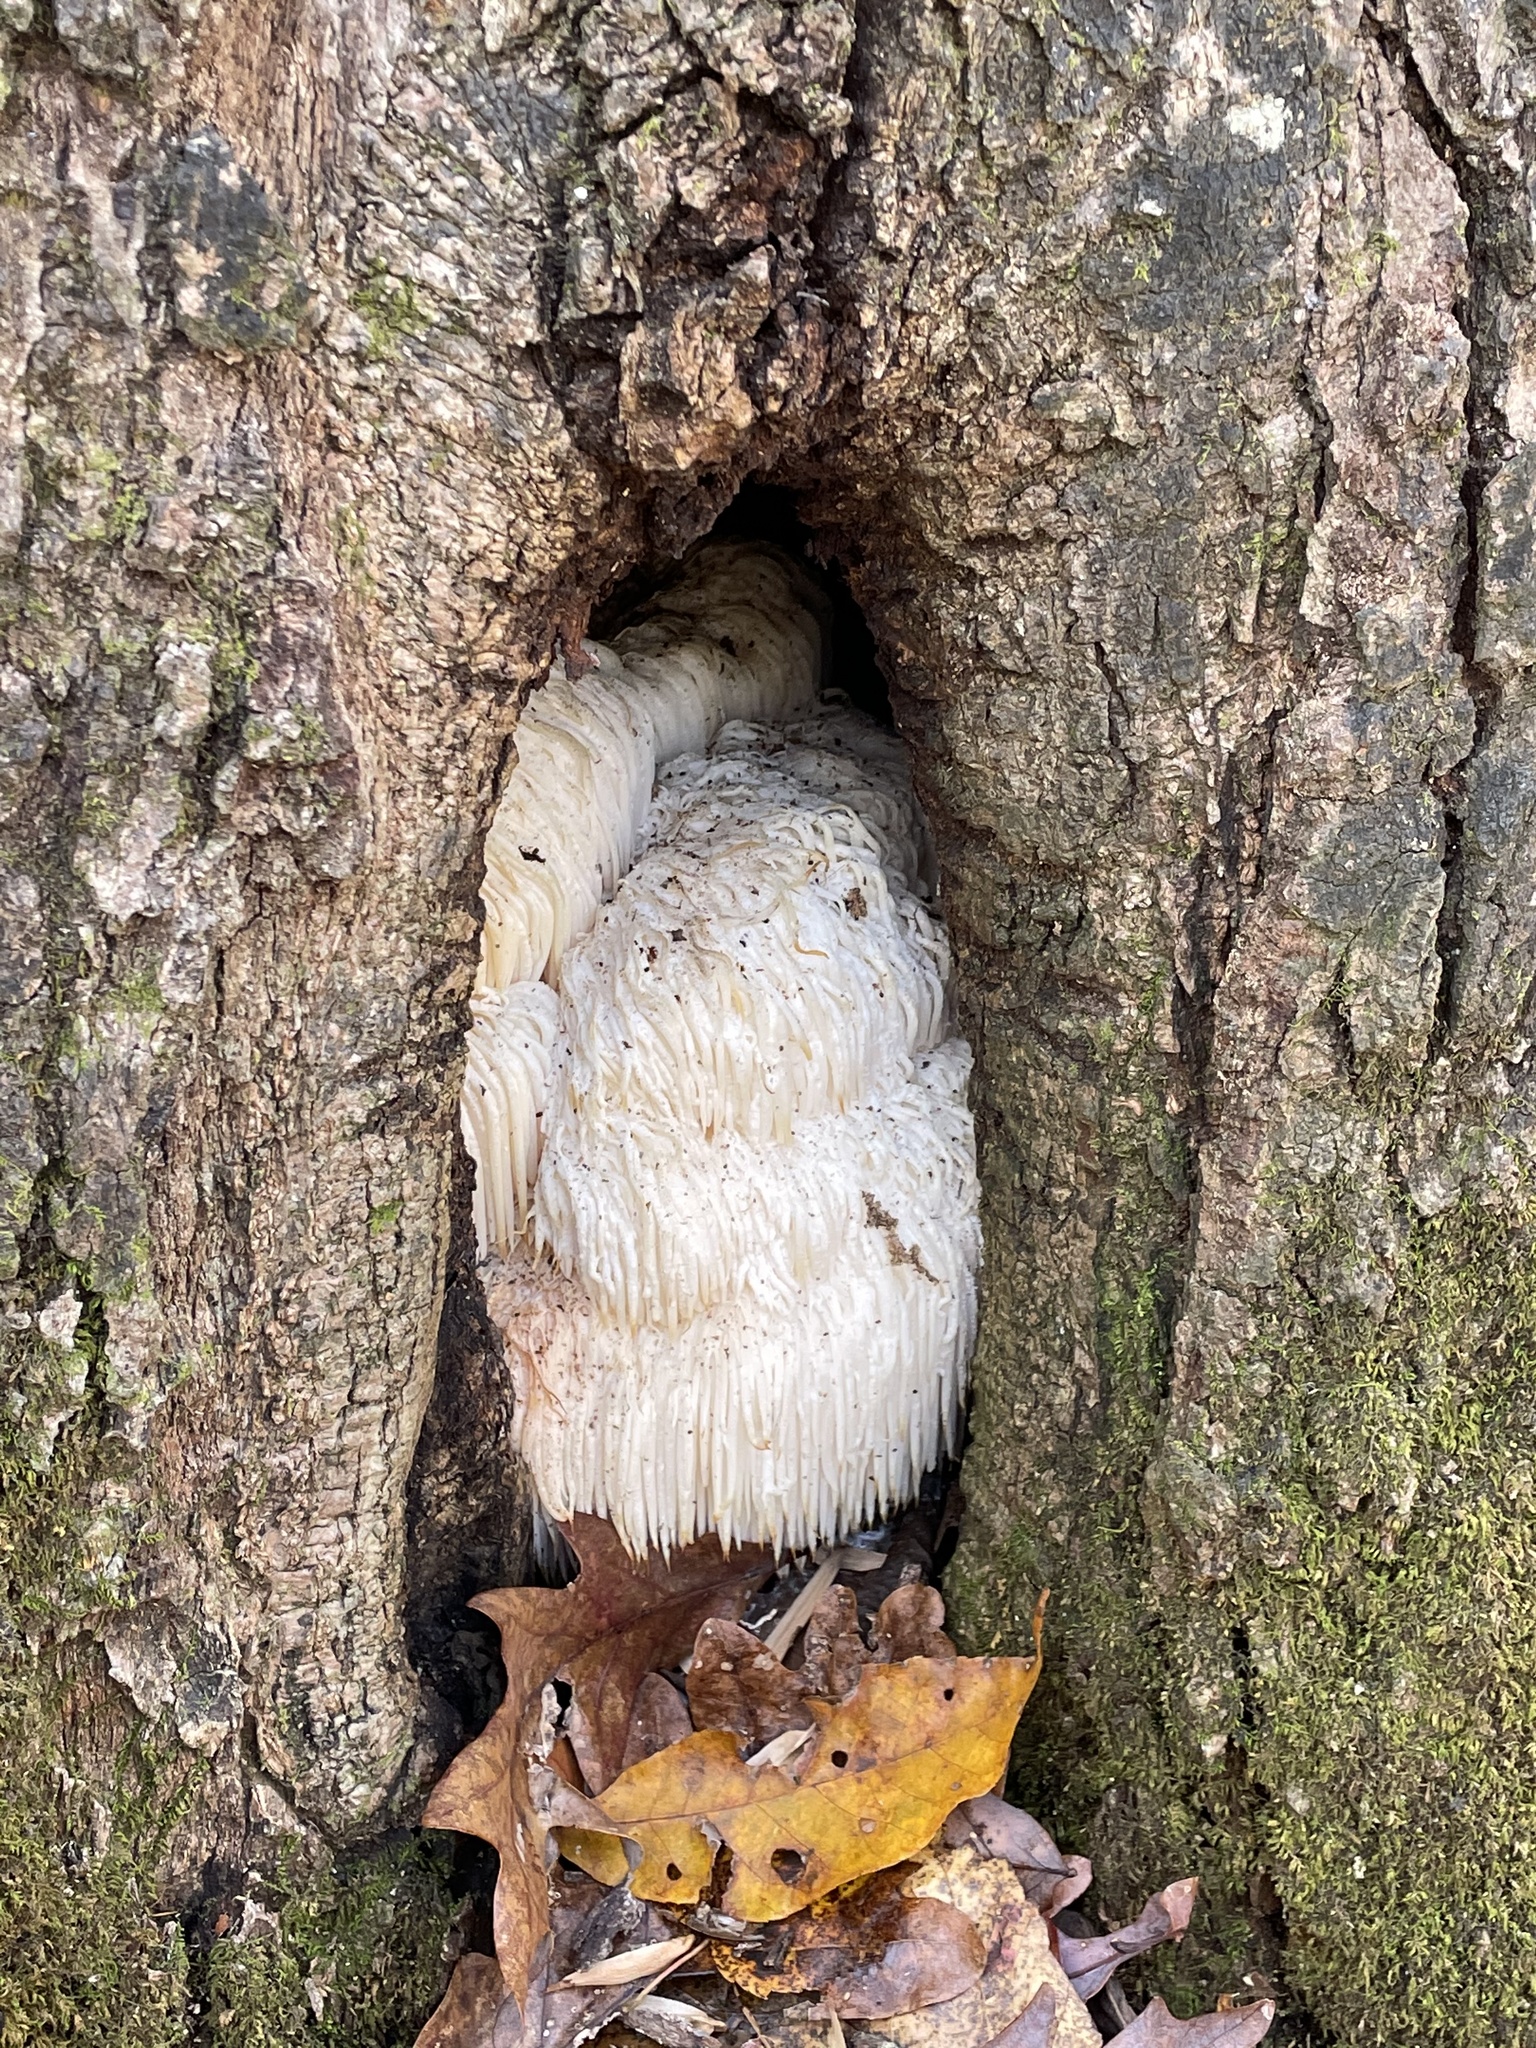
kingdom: Fungi
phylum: Basidiomycota
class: Agaricomycetes
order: Russulales
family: Hericiaceae
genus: Hericium
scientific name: Hericium erinaceus
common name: Bearded tooth
